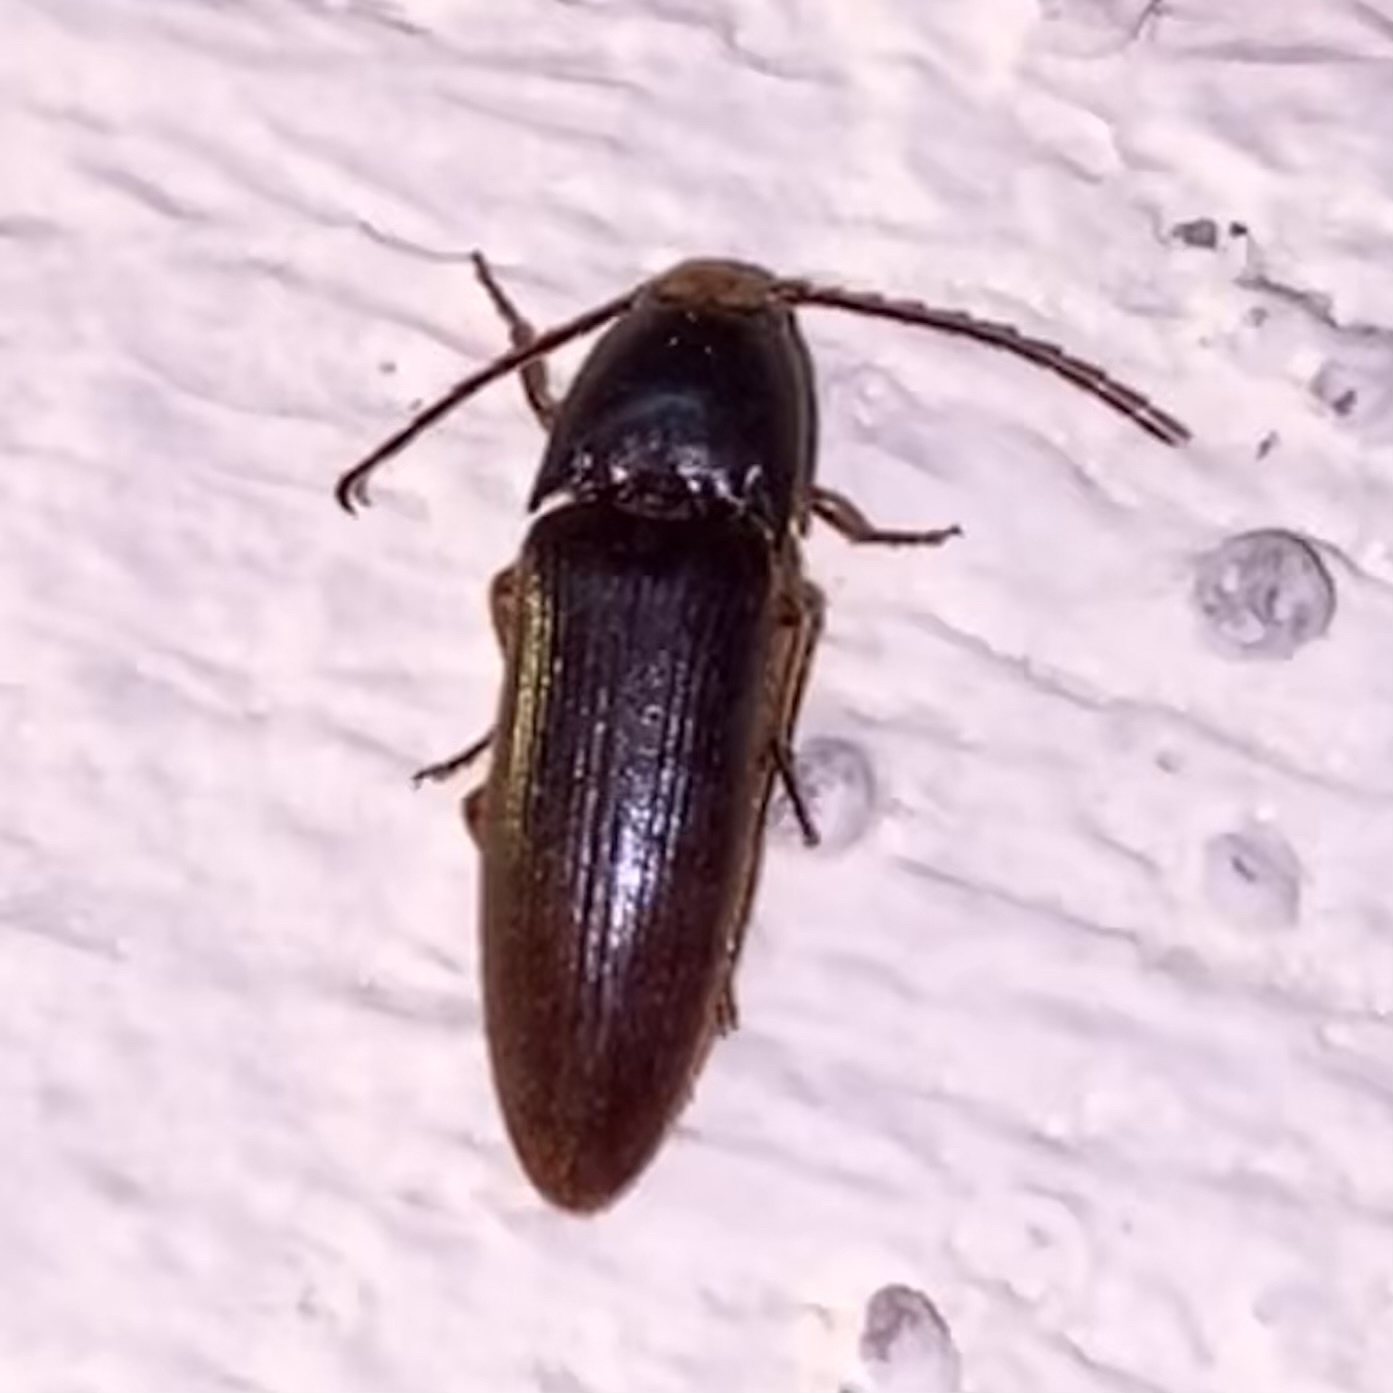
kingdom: Animalia
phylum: Arthropoda
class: Insecta
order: Coleoptera
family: Elateridae
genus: Physorhinus
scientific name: Physorhinus
